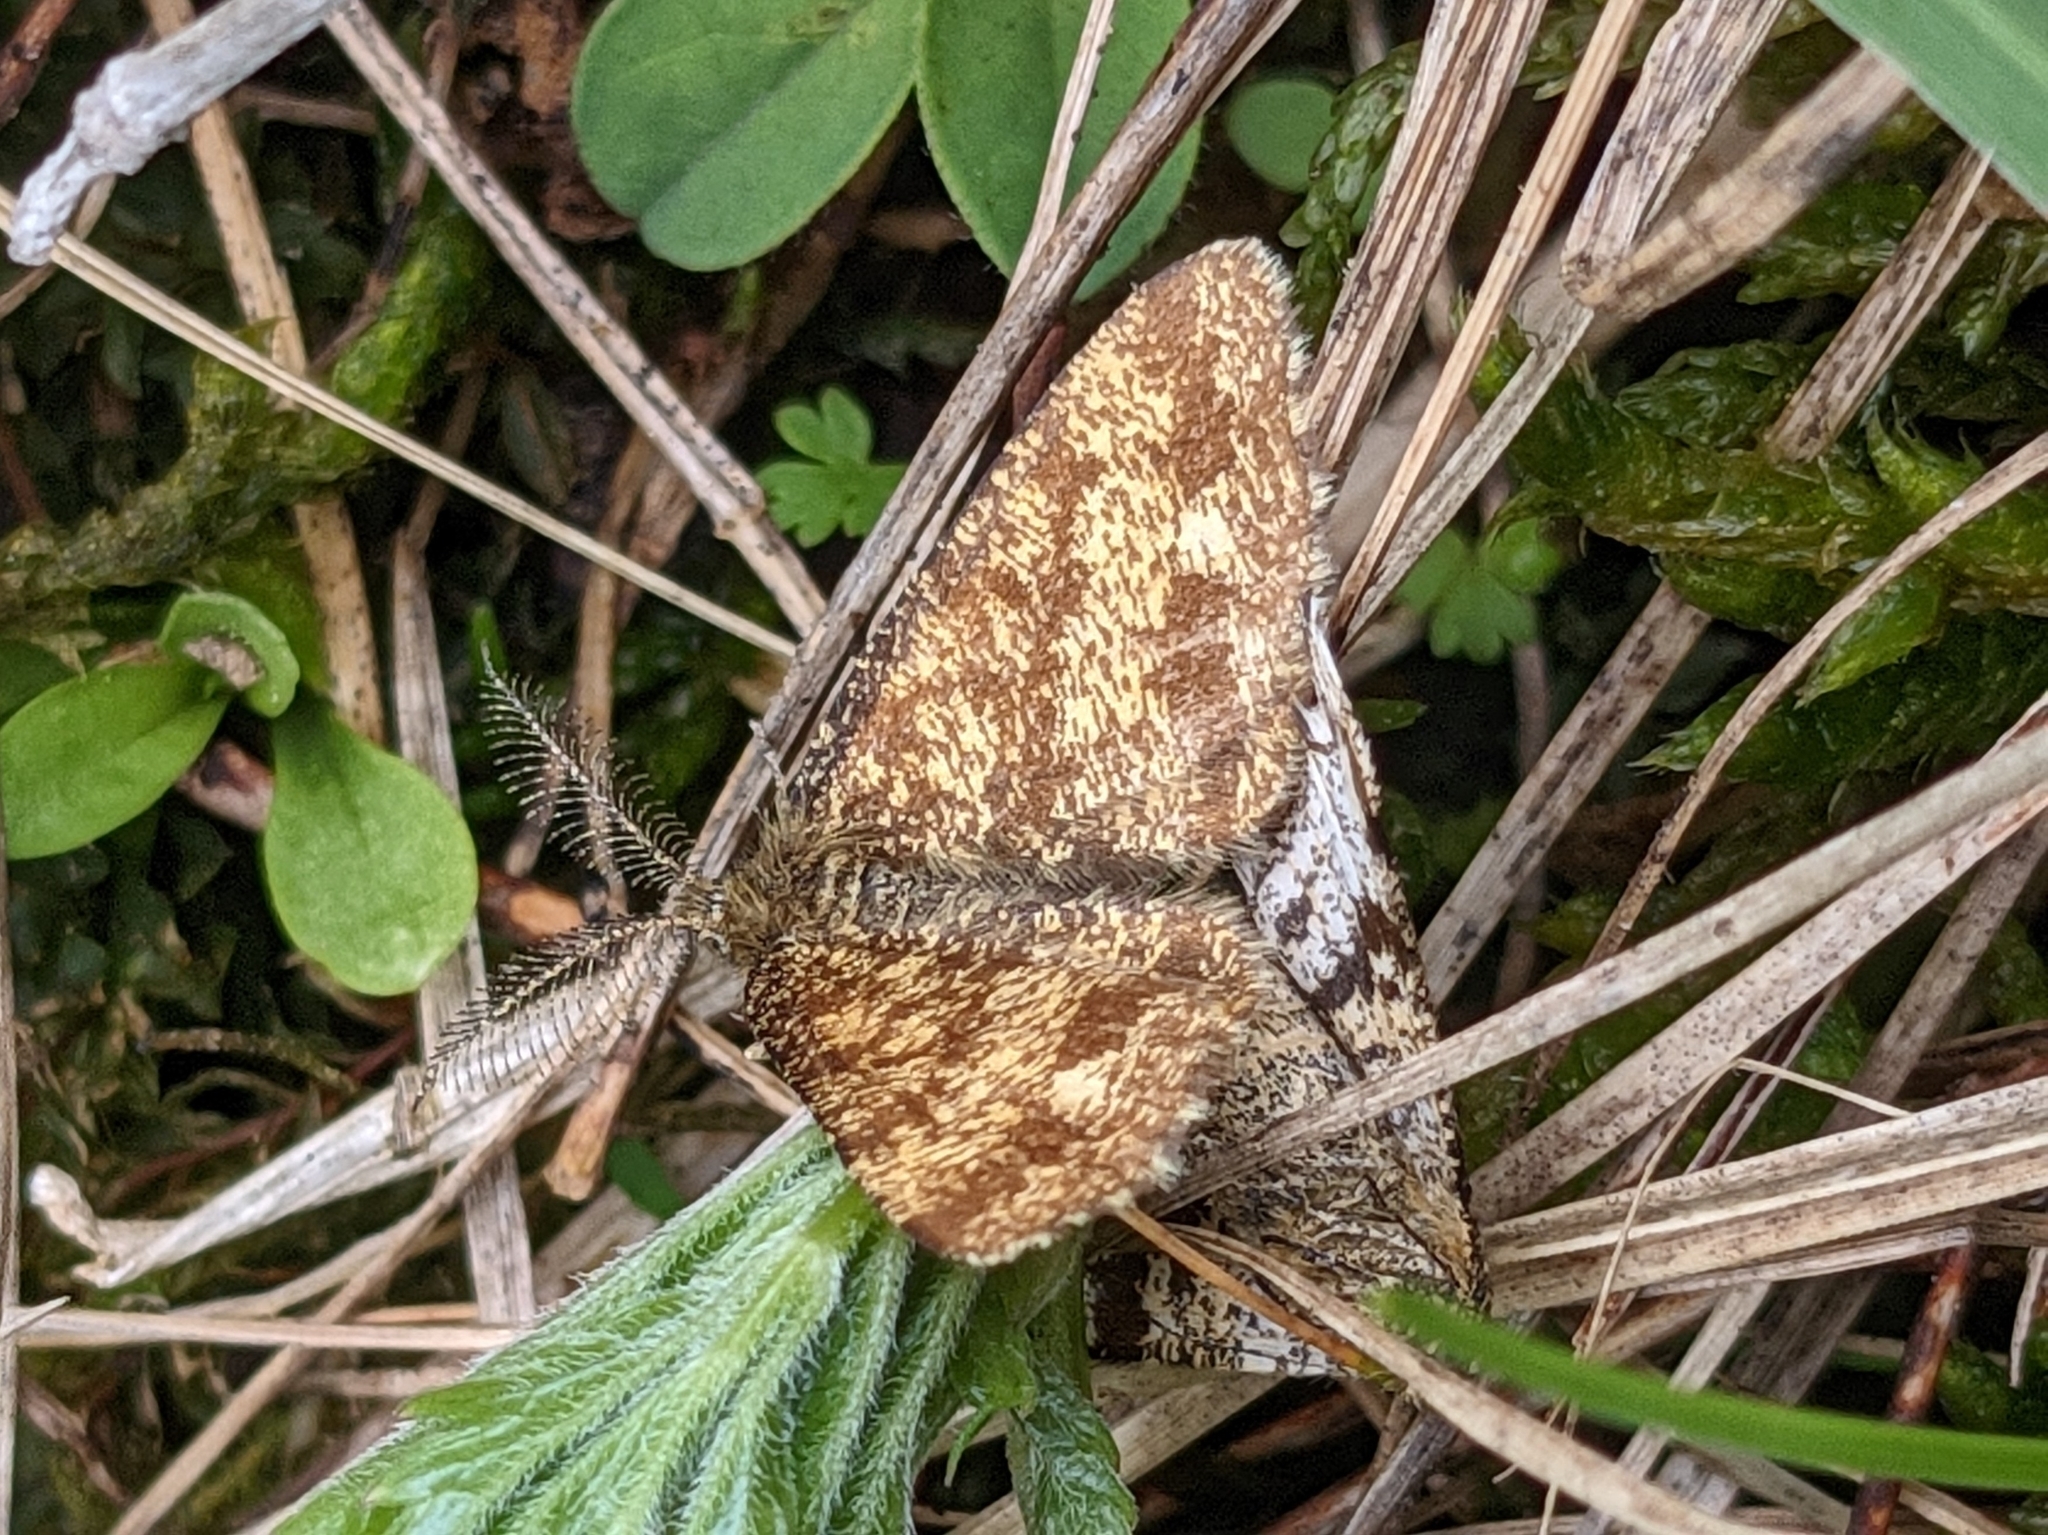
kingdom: Animalia
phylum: Arthropoda
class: Insecta
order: Lepidoptera
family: Geometridae
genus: Ematurga
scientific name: Ematurga atomaria
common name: Common heath
